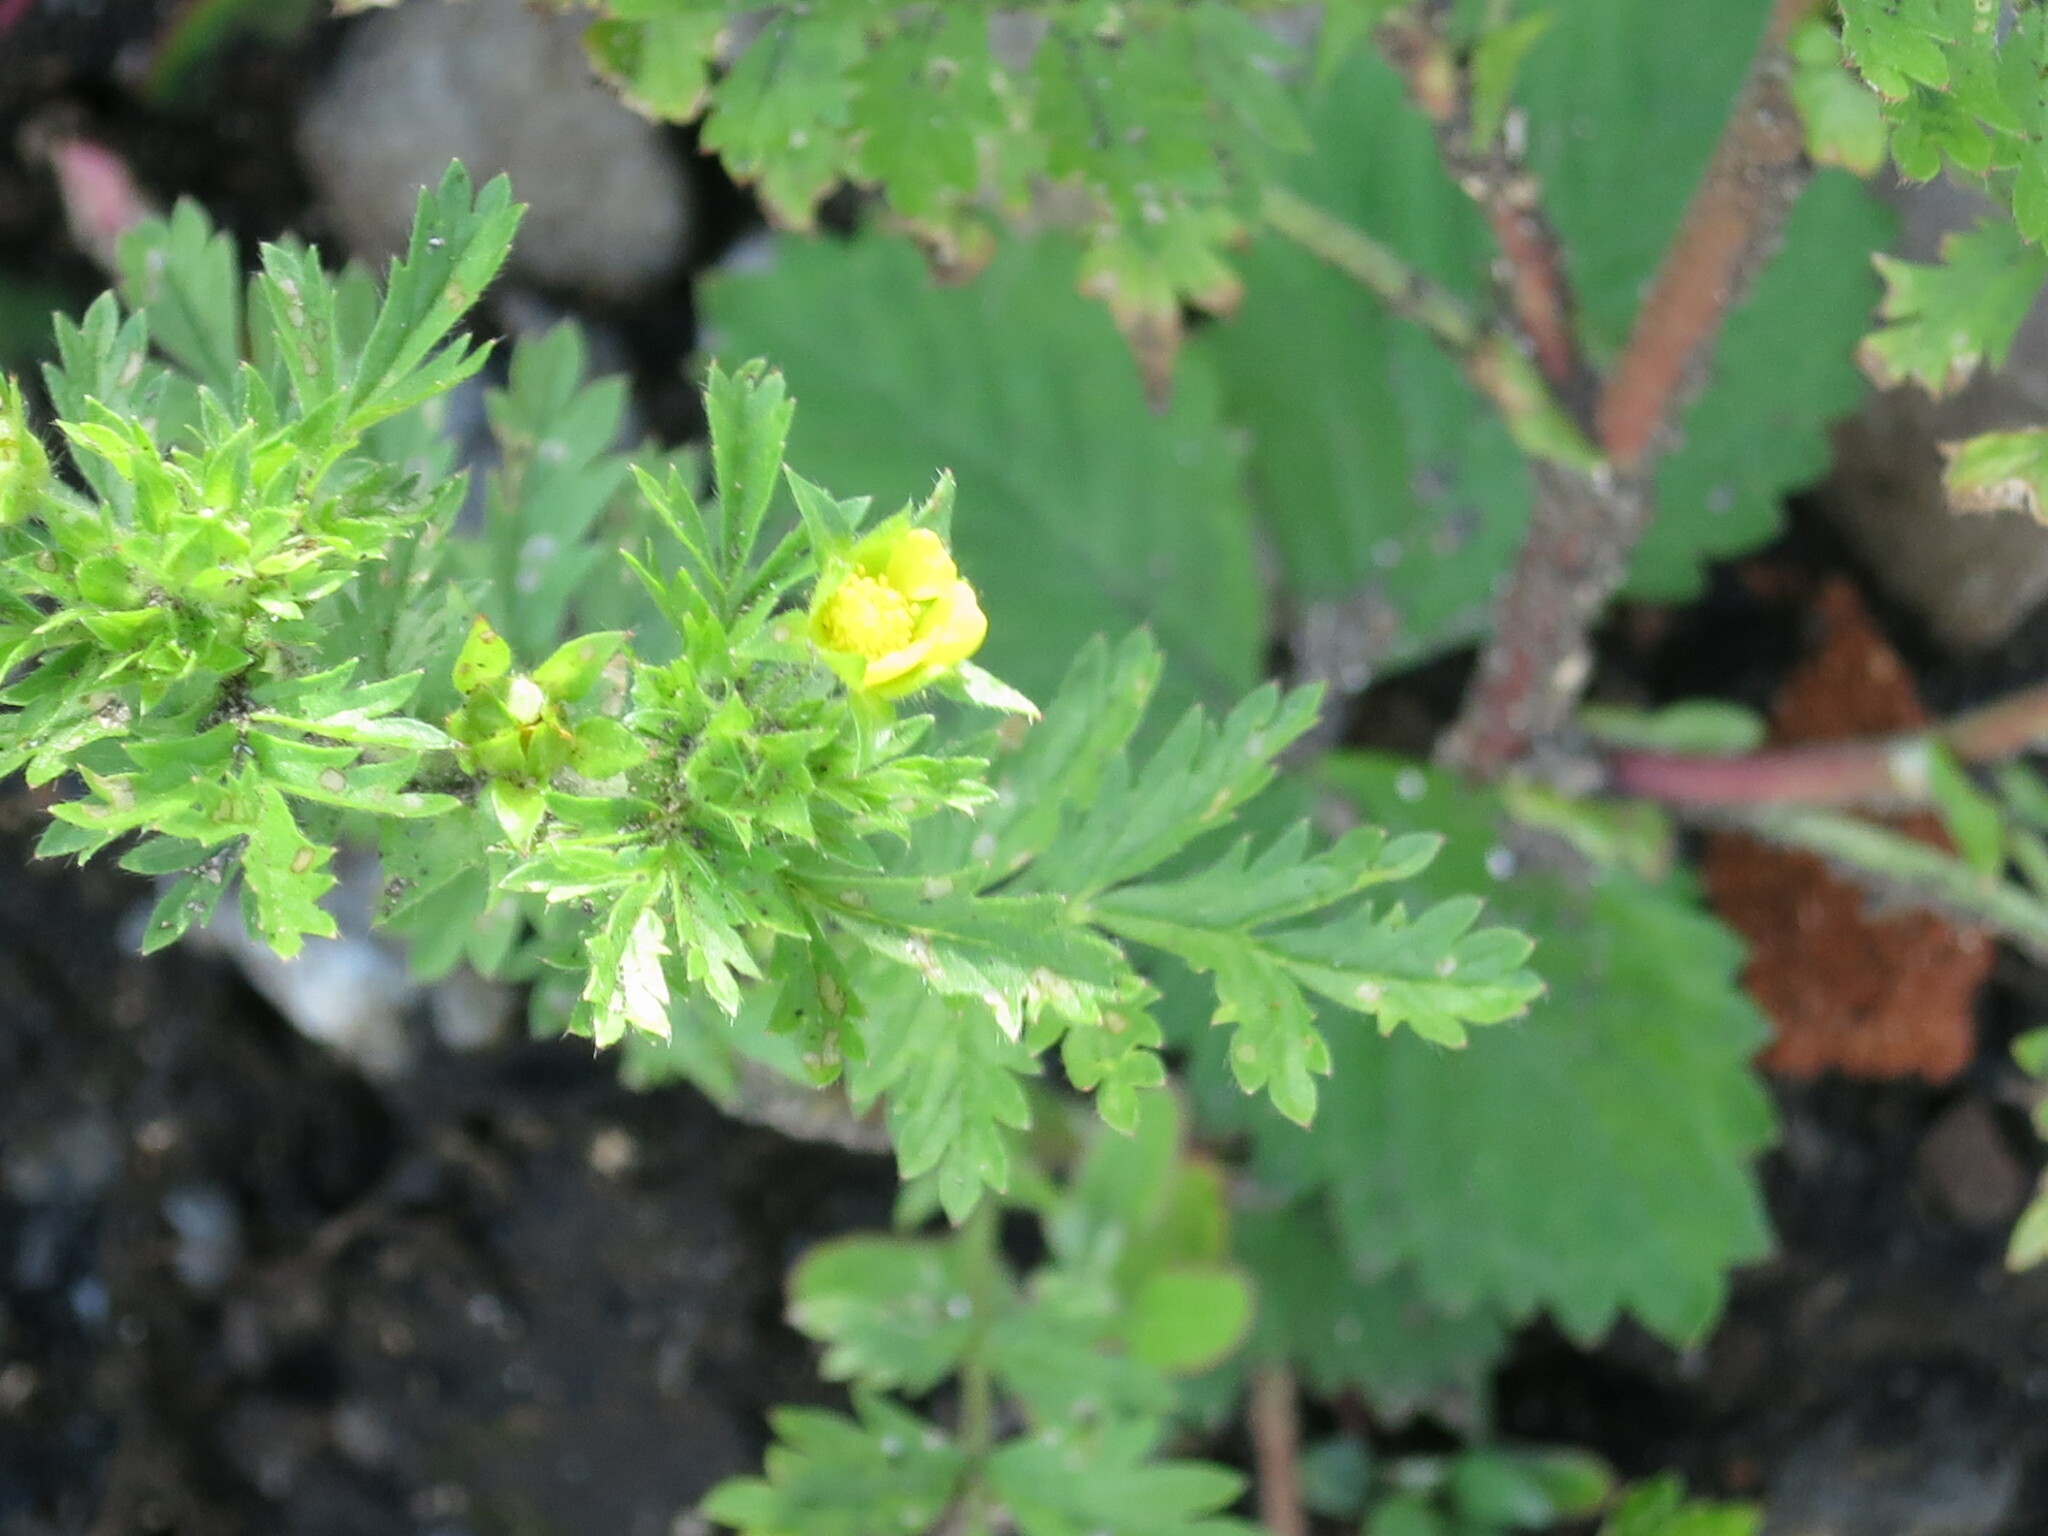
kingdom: Plantae
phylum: Tracheophyta
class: Magnoliopsida
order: Rosales
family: Rosaceae
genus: Potentilla
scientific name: Potentilla supina
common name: Prostrate cinquefoil
